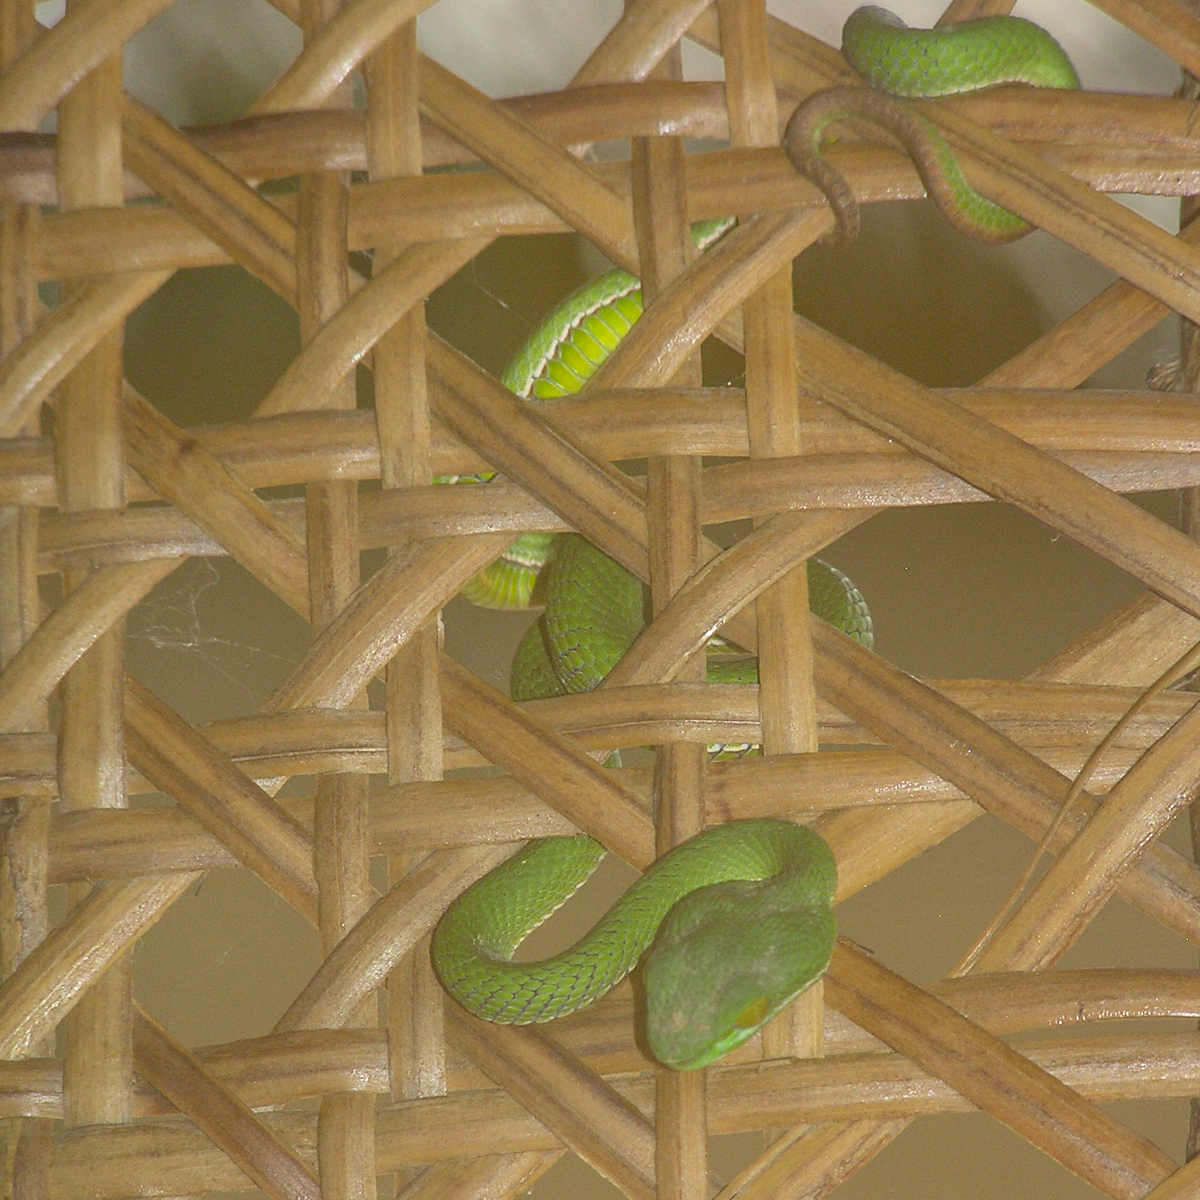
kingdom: Animalia
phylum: Chordata
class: Squamata
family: Viperidae
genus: Trimeresurus
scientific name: Trimeresurus cardamomensis
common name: Cardamom mountains green pitviper
